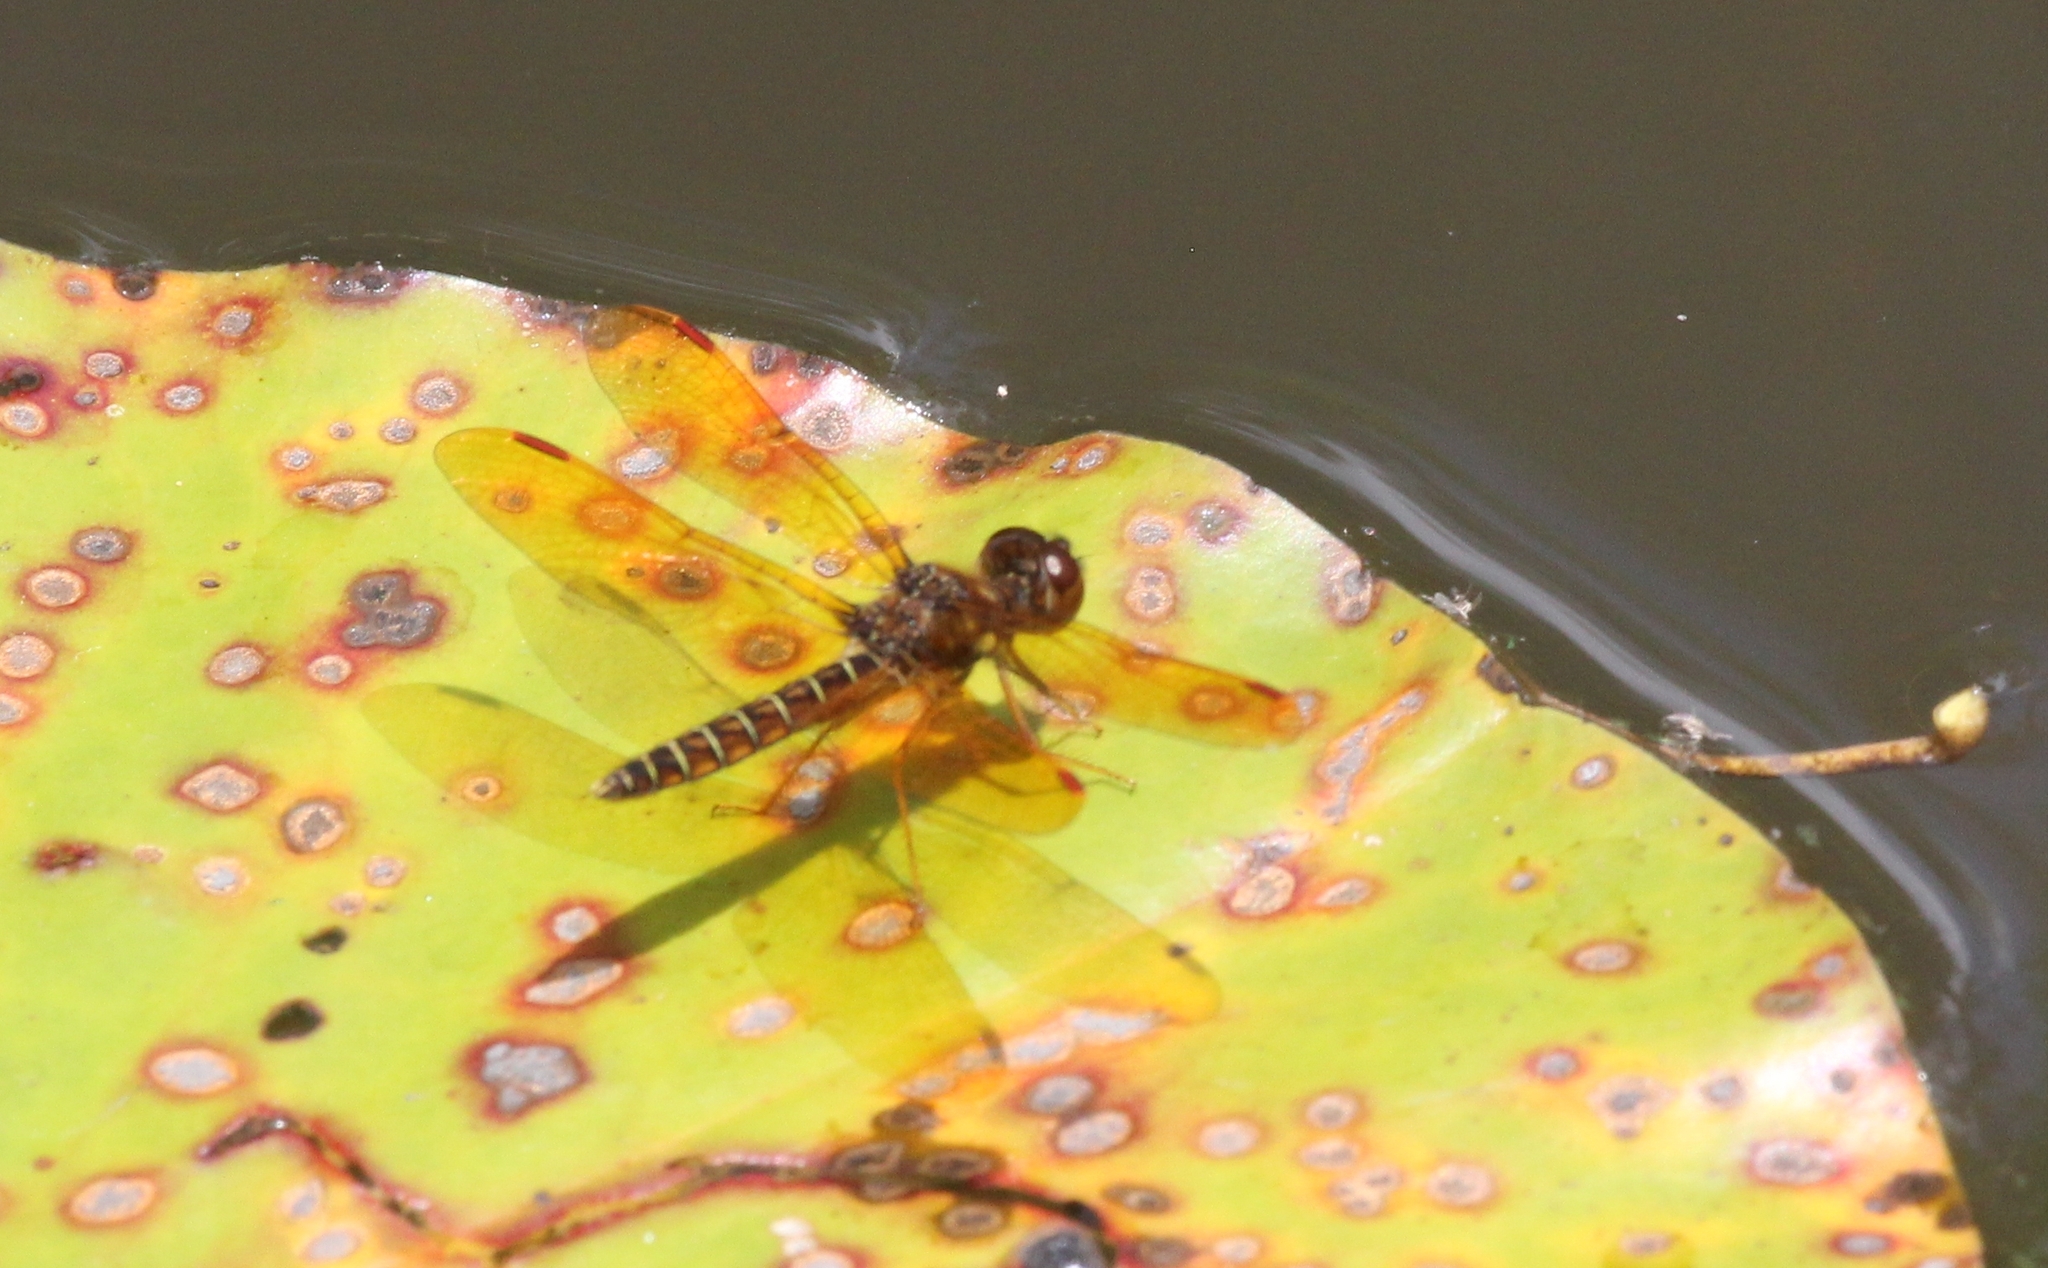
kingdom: Animalia
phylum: Arthropoda
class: Insecta
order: Odonata
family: Libellulidae
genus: Perithemis
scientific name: Perithemis tenera
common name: Eastern amberwing
